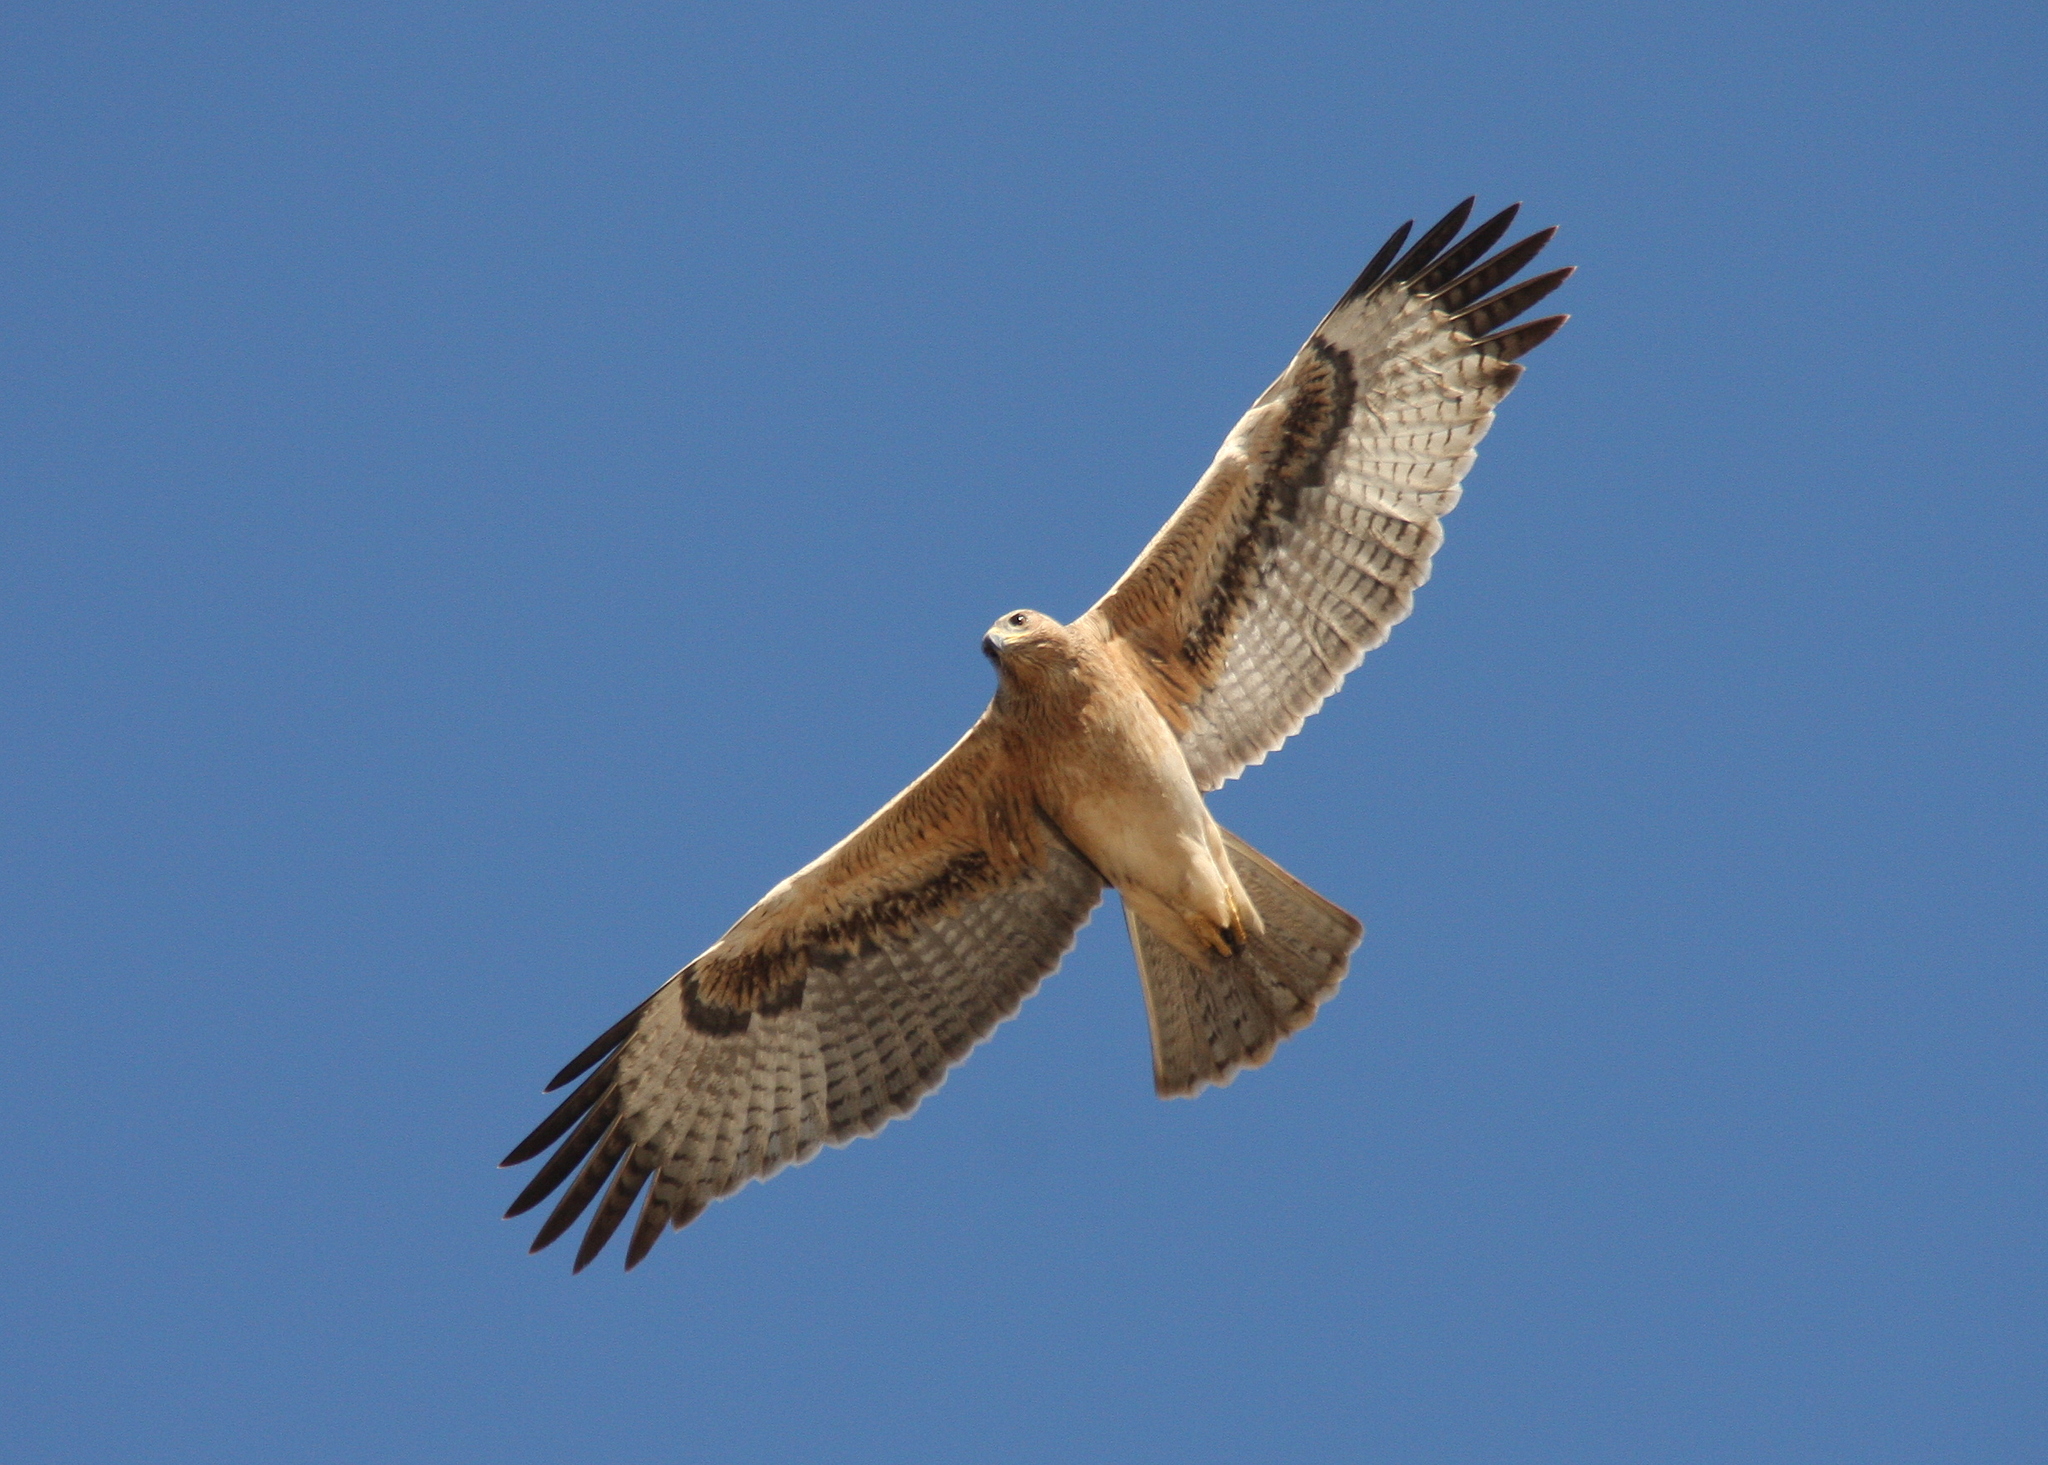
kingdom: Animalia
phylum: Chordata
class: Aves
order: Accipitriformes
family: Accipitridae
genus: Aquila
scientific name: Aquila fasciata
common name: Bonelli's eagle
